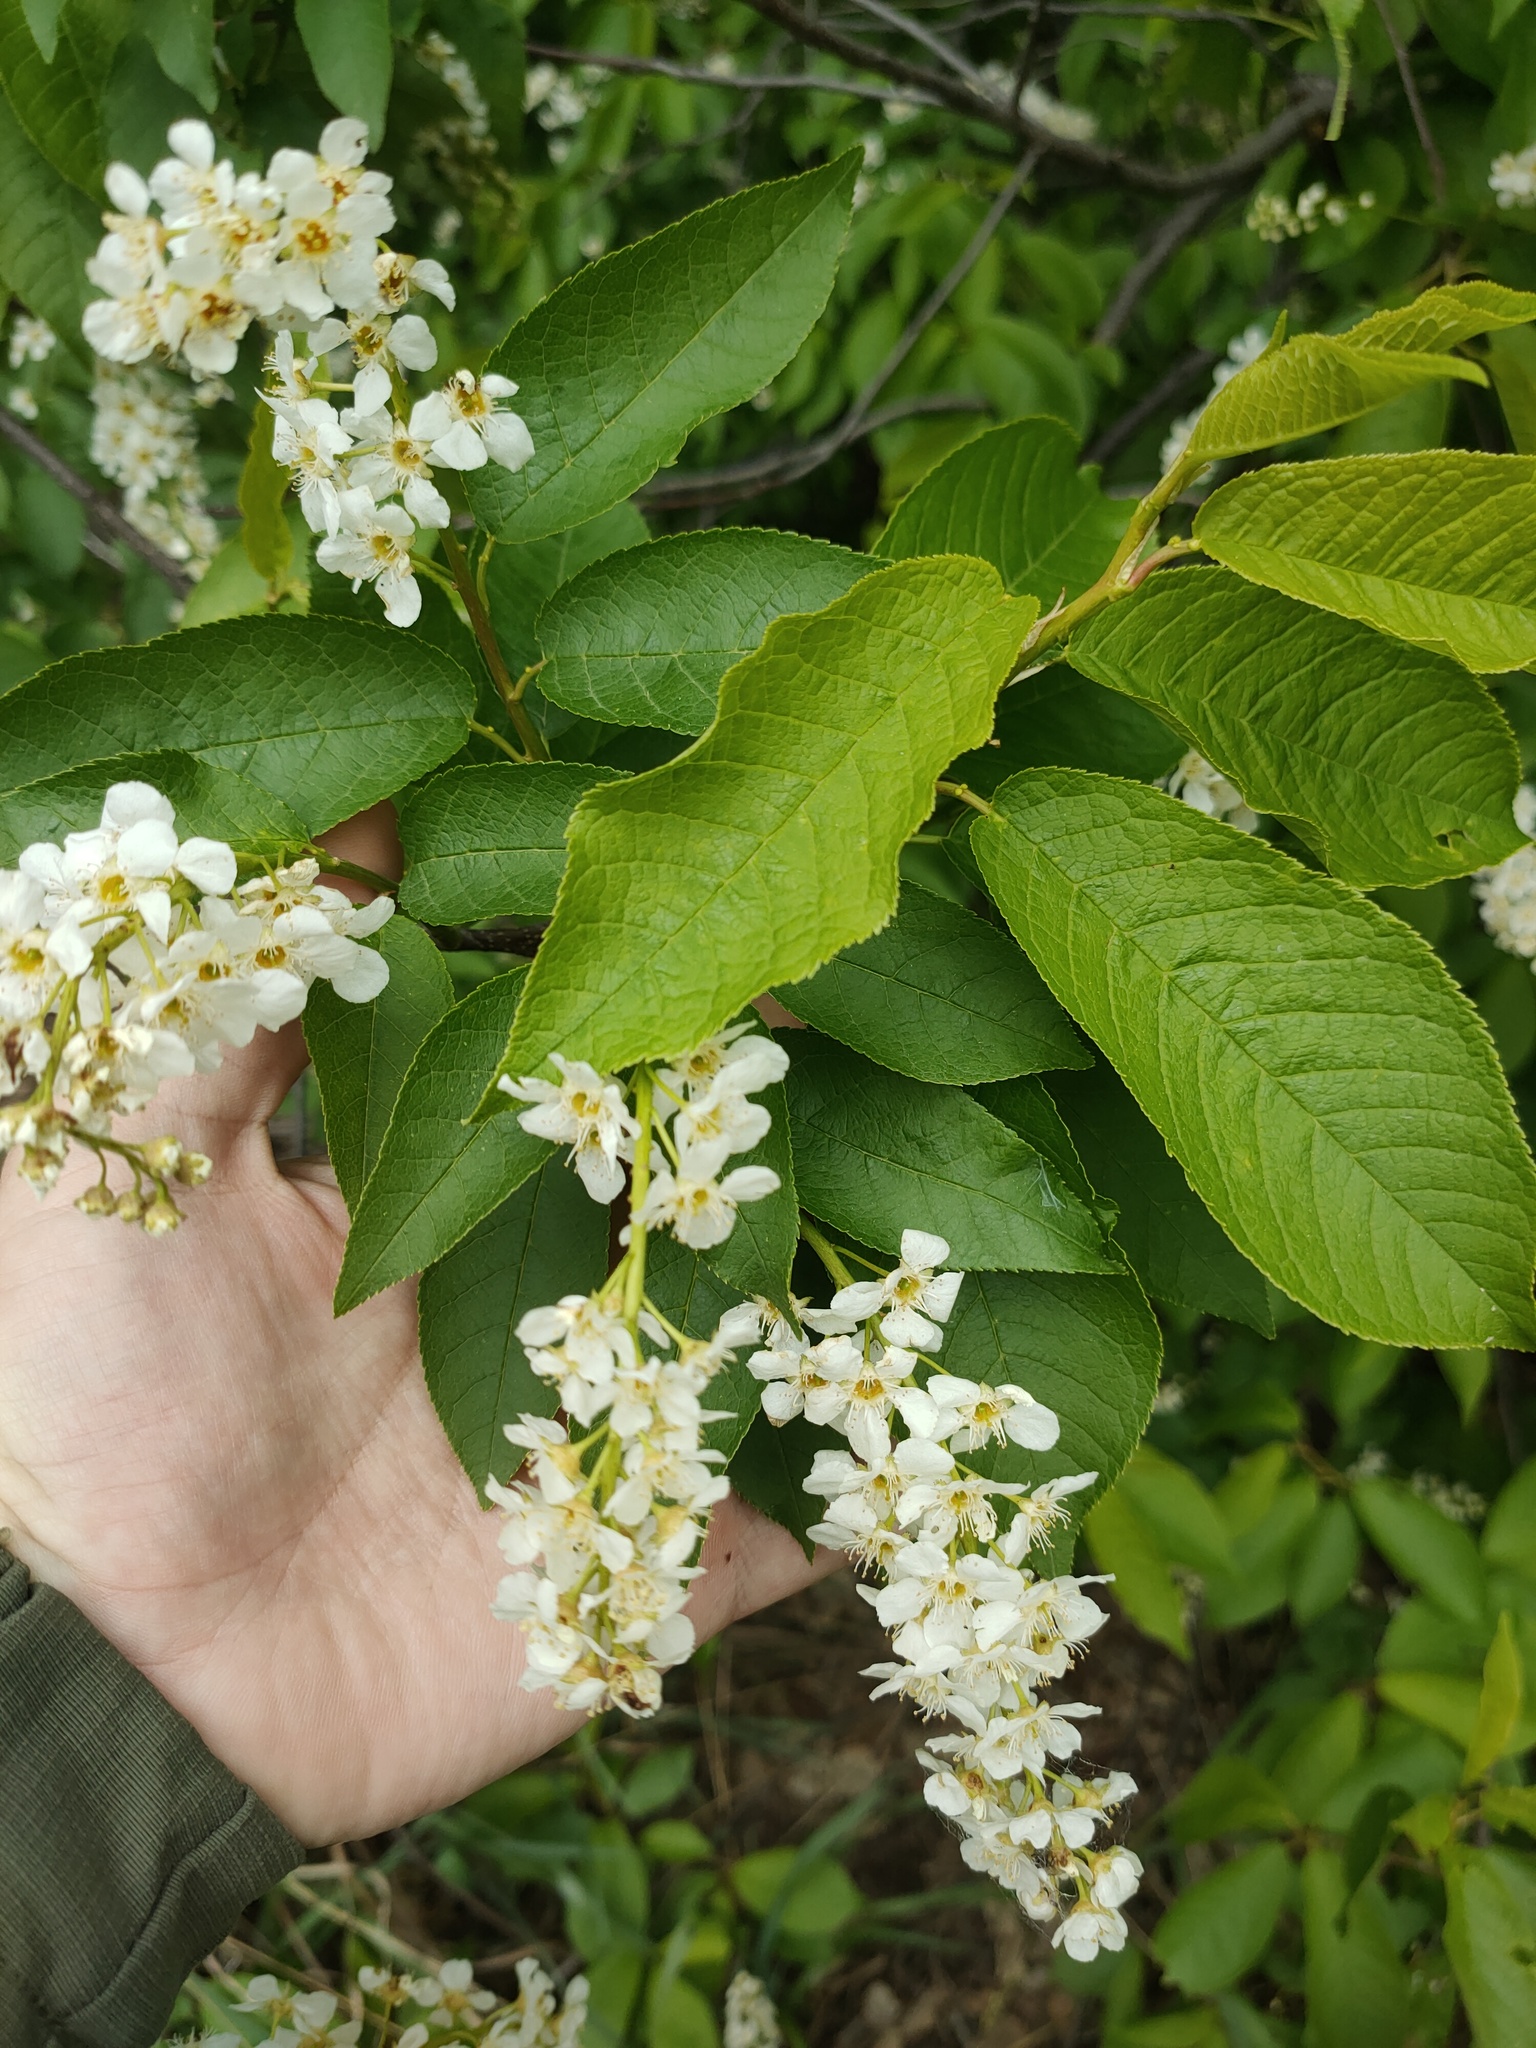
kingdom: Plantae
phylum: Tracheophyta
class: Magnoliopsida
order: Rosales
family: Rosaceae
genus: Prunus
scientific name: Prunus padus
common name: Bird cherry
